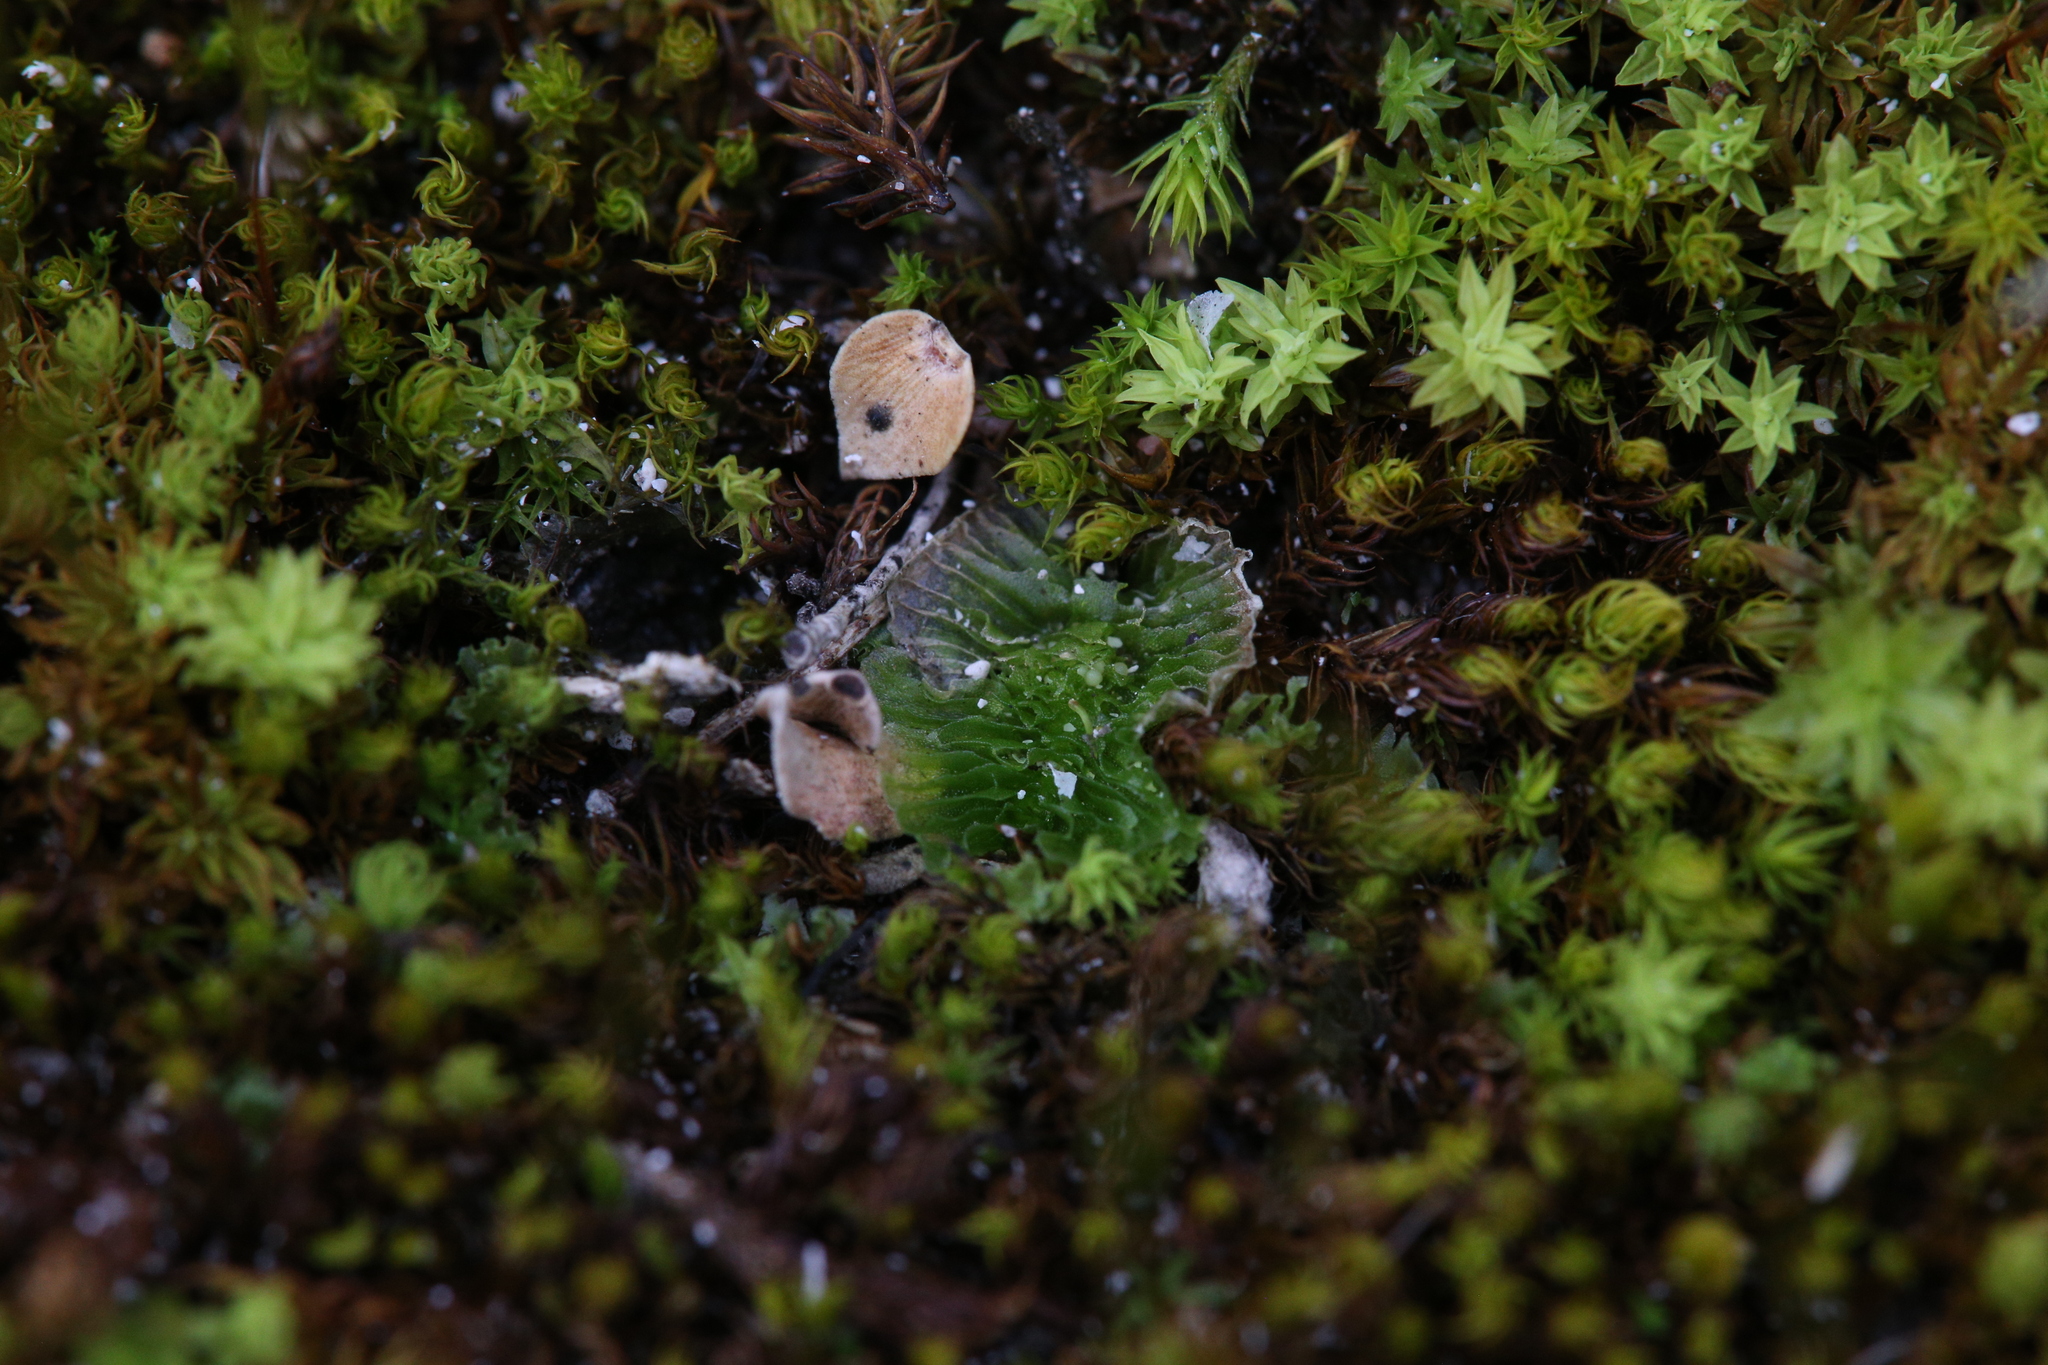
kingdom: Plantae
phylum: Marchantiophyta
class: Jungermanniopsida
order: Fossombroniales
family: Petalophyllaceae
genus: Petalophyllum
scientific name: Petalophyllum preissii
